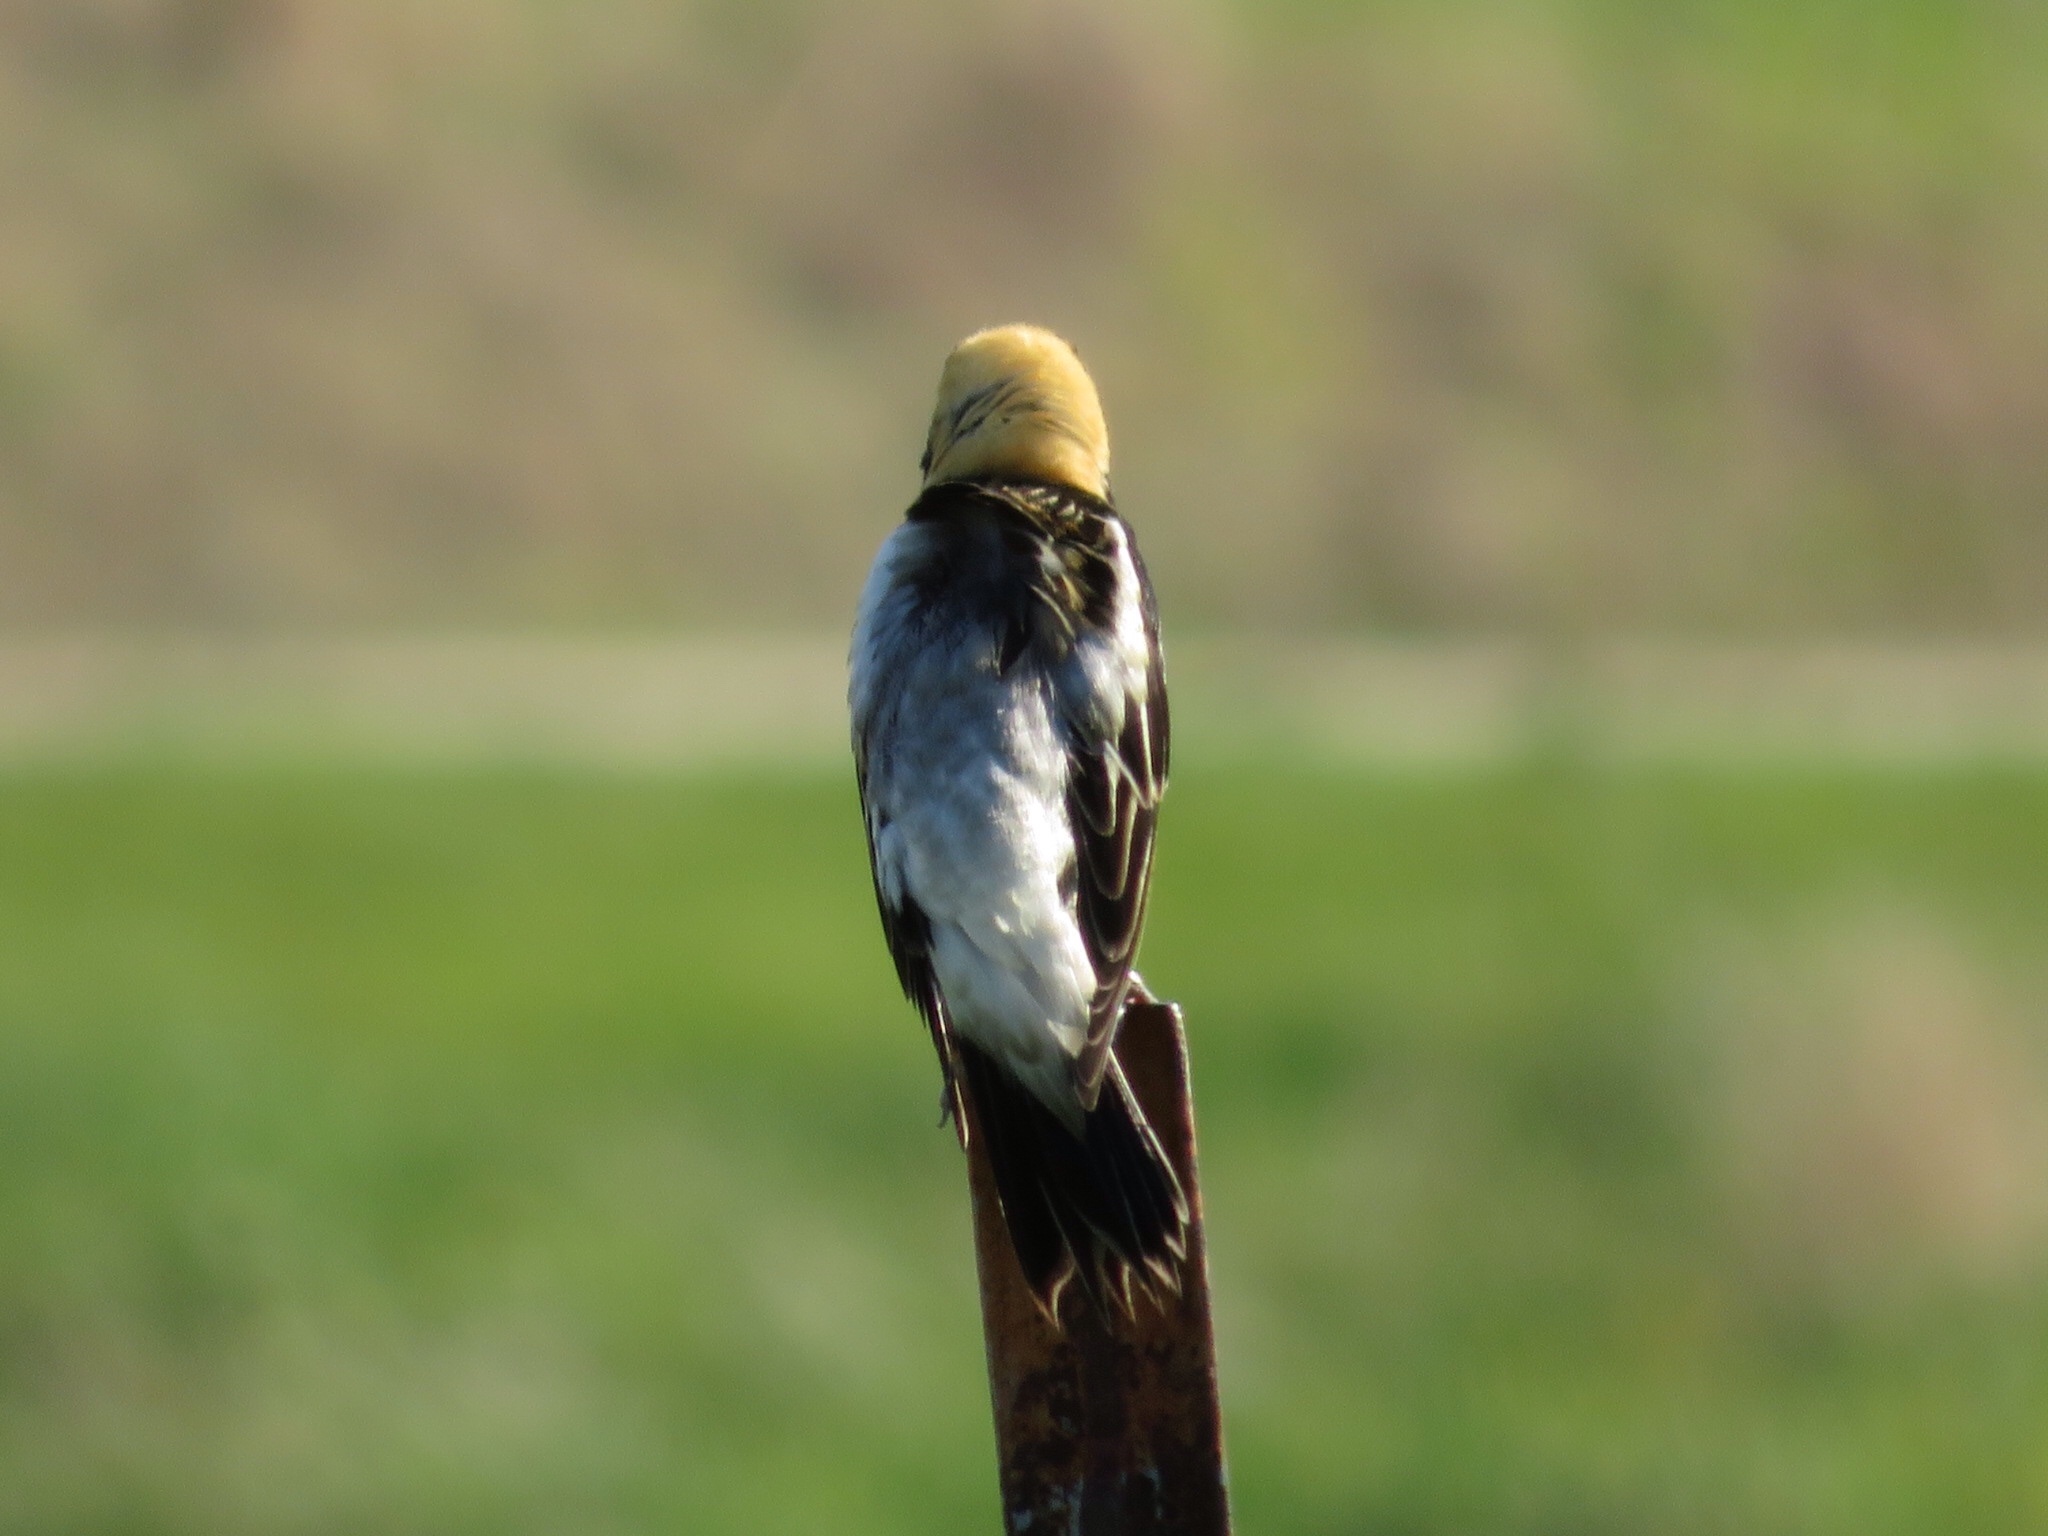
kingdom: Animalia
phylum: Chordata
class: Aves
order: Passeriformes
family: Icteridae
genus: Dolichonyx
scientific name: Dolichonyx oryzivorus
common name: Bobolink
